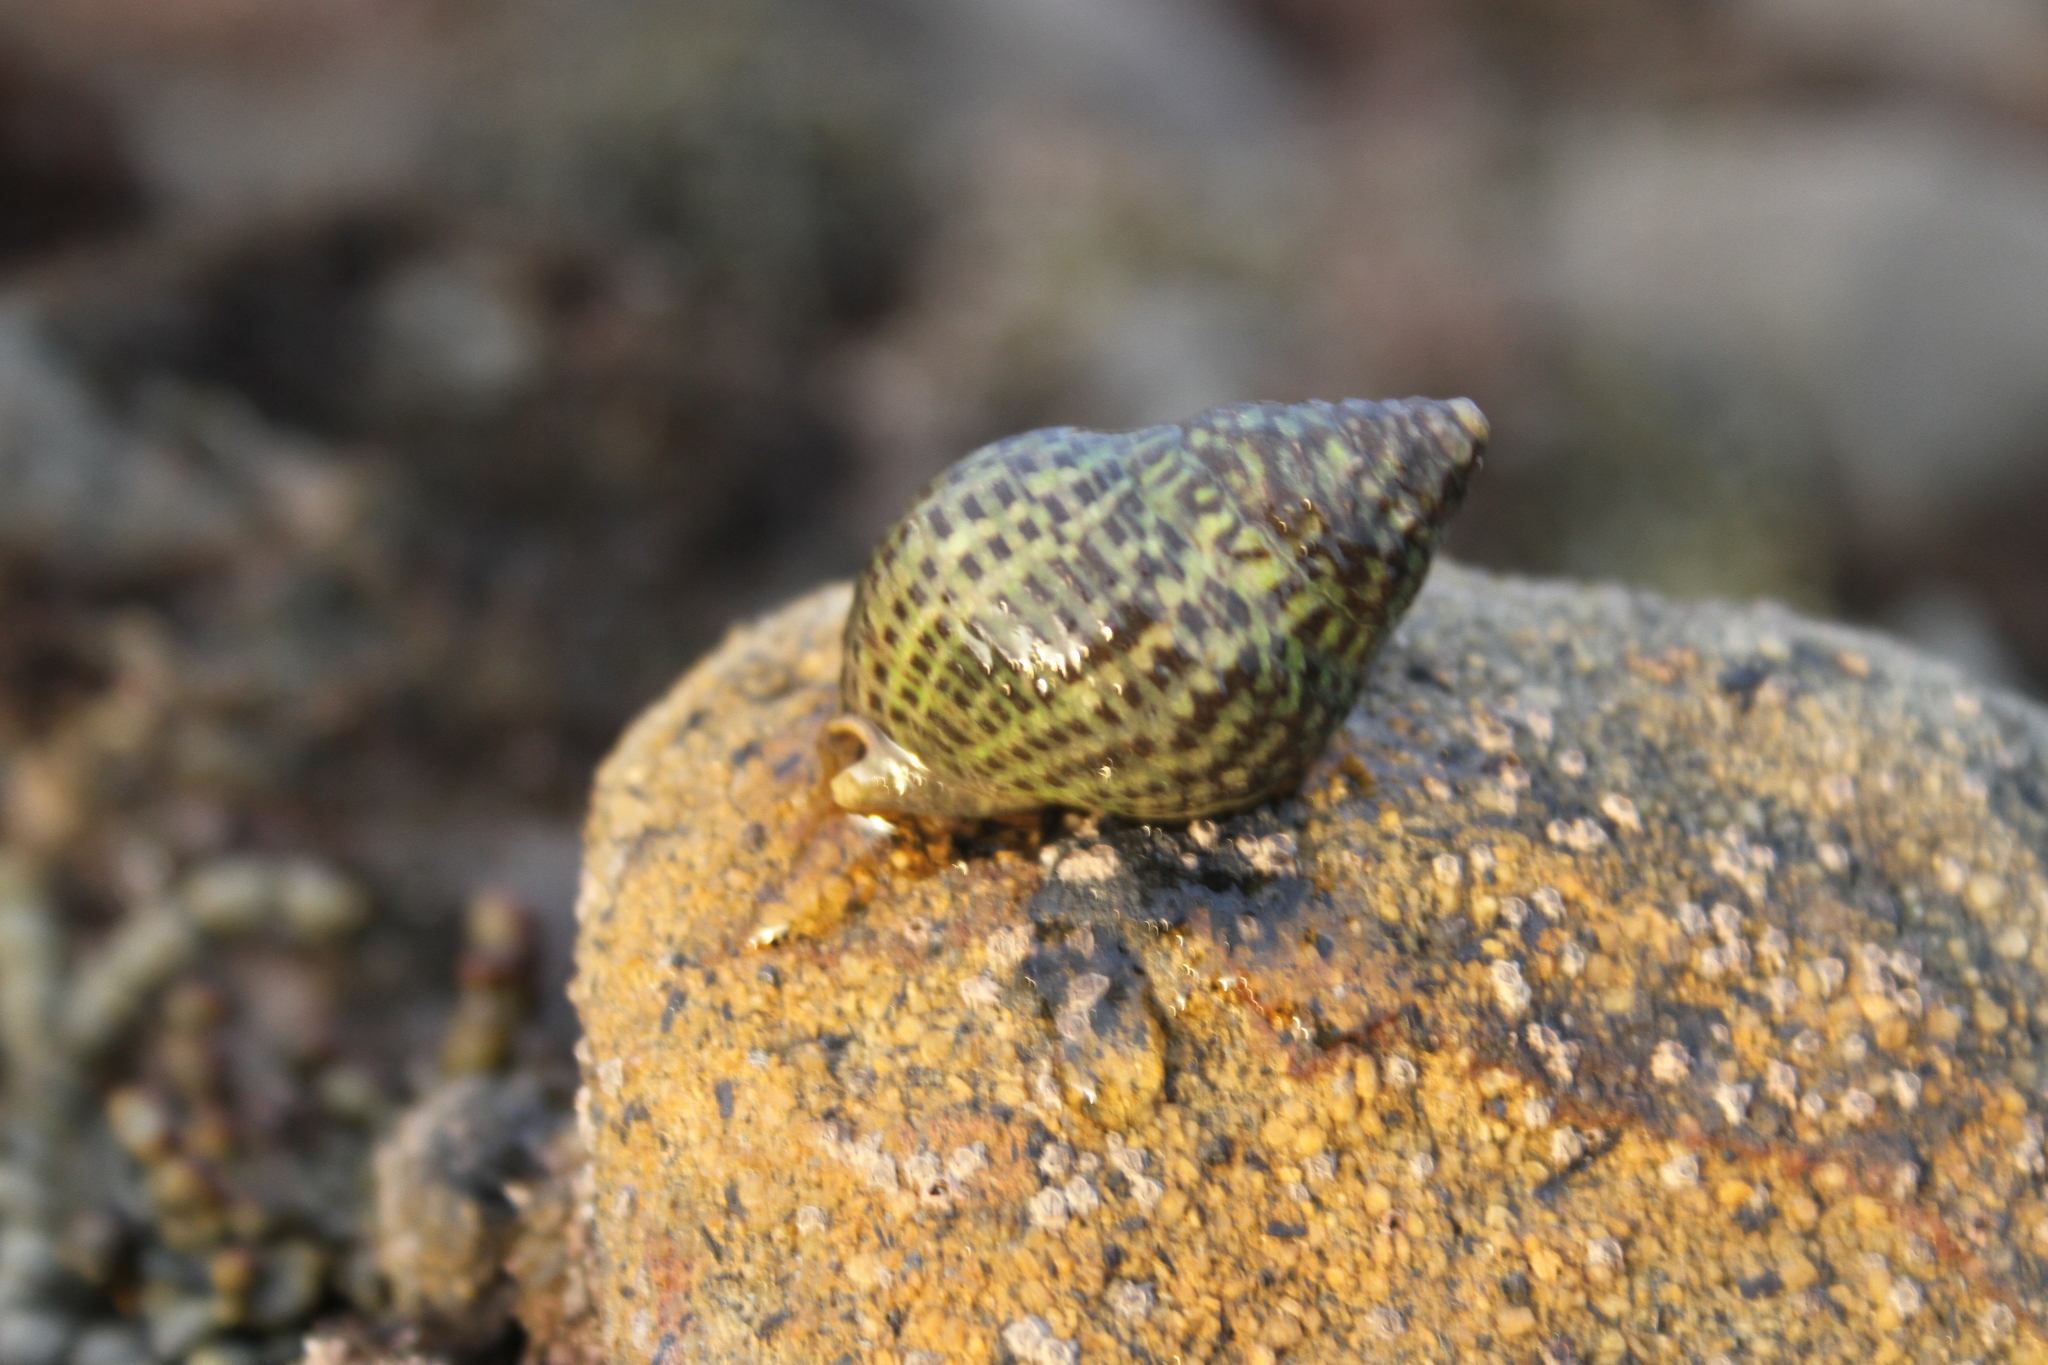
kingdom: Animalia
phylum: Mollusca
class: Gastropoda
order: Neogastropoda
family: Cominellidae
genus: Cominella
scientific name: Cominella maculosa
